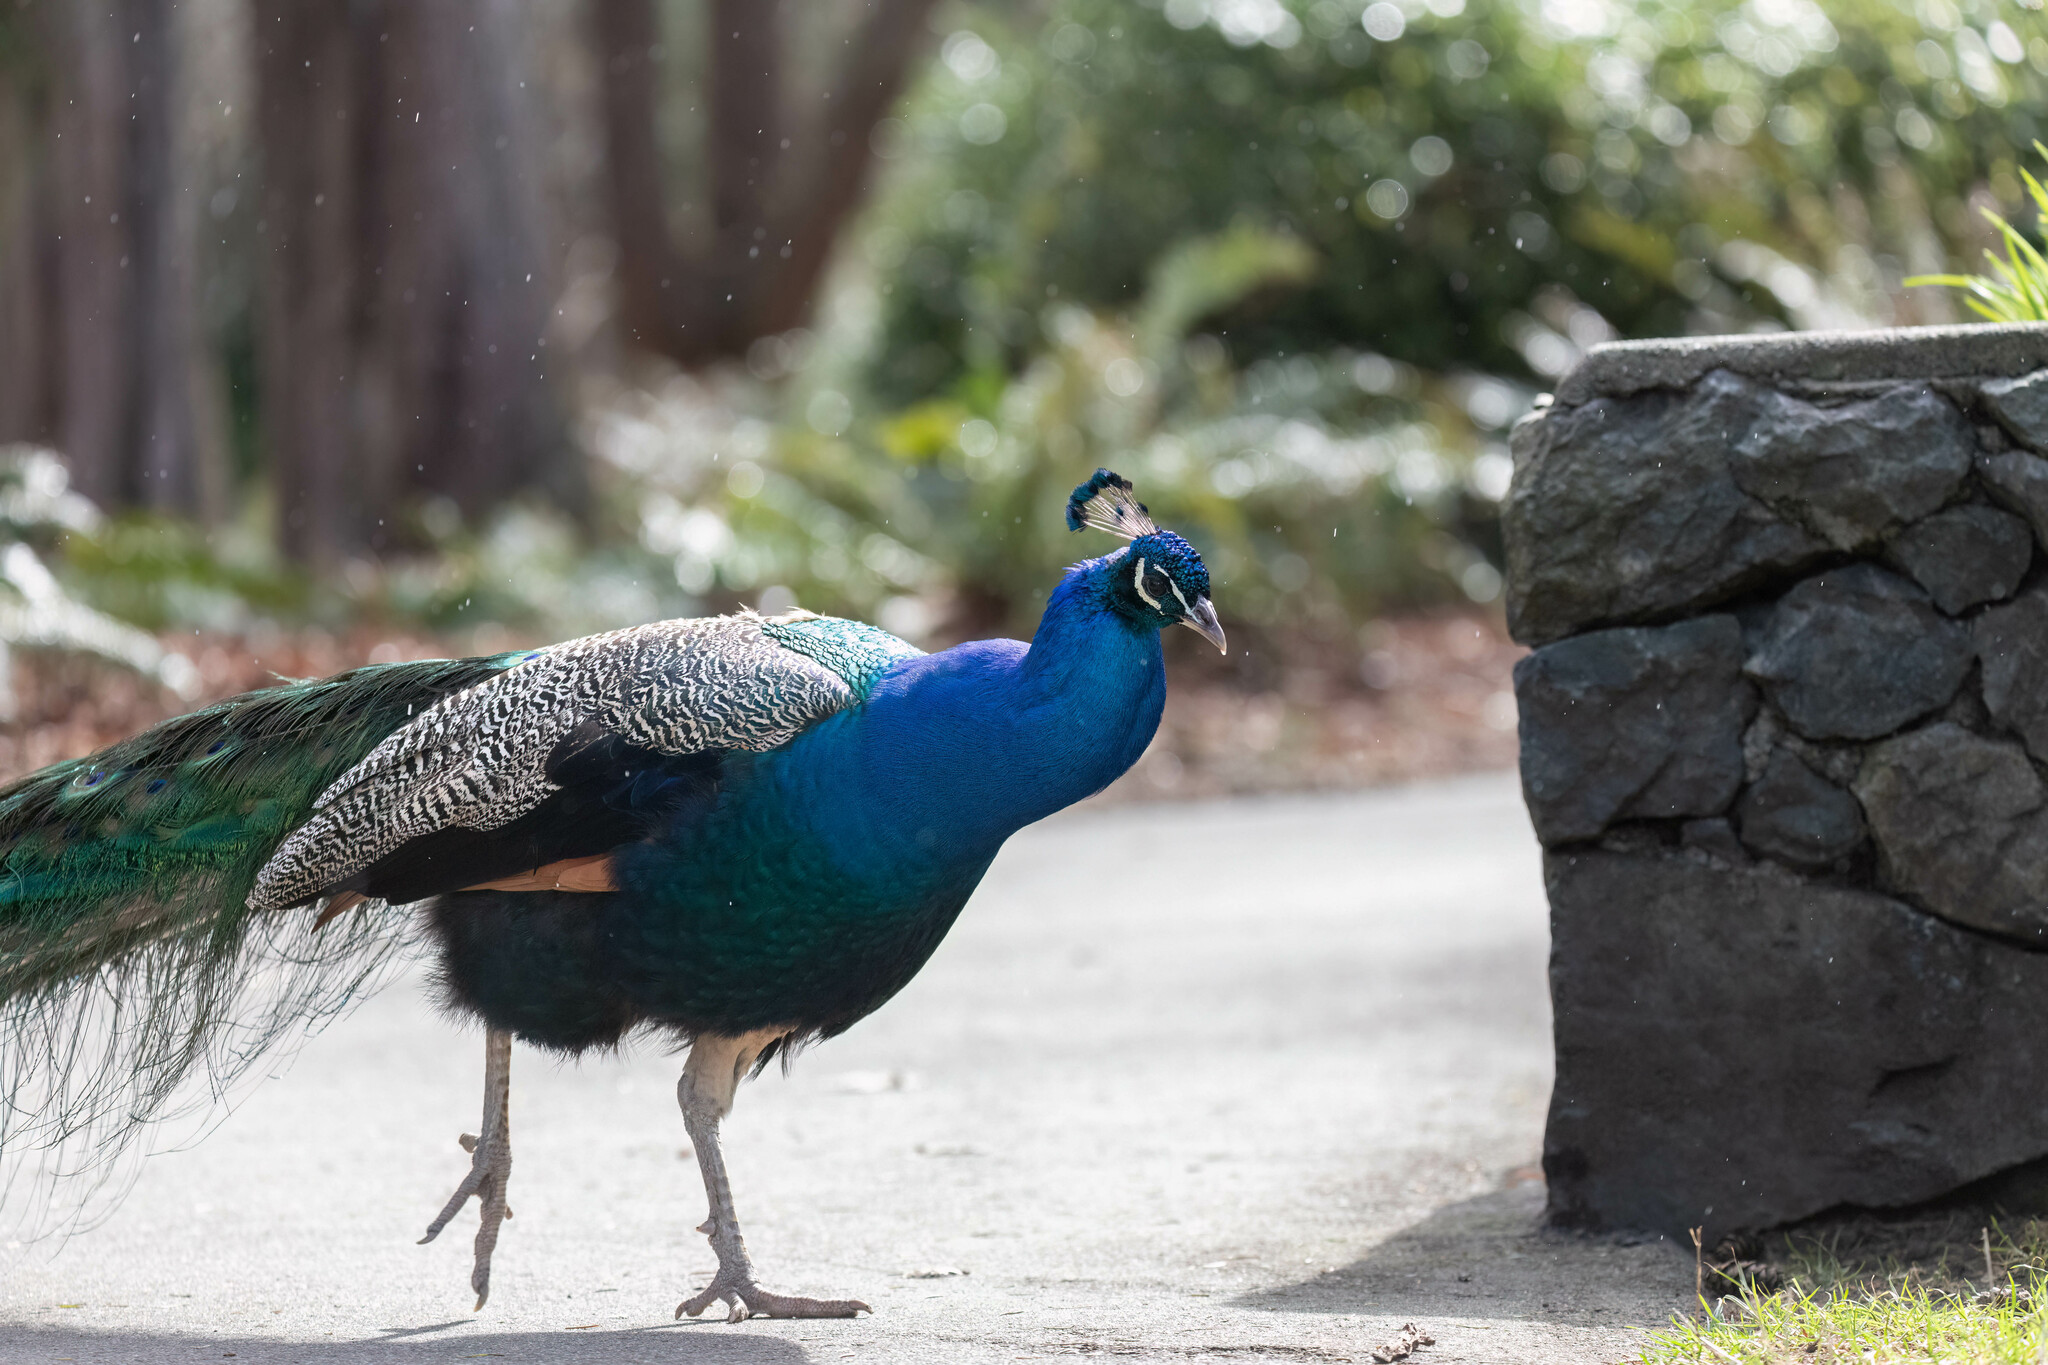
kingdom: Animalia
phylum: Chordata
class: Aves
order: Galliformes
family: Phasianidae
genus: Pavo
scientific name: Pavo cristatus
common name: Indian peafowl
